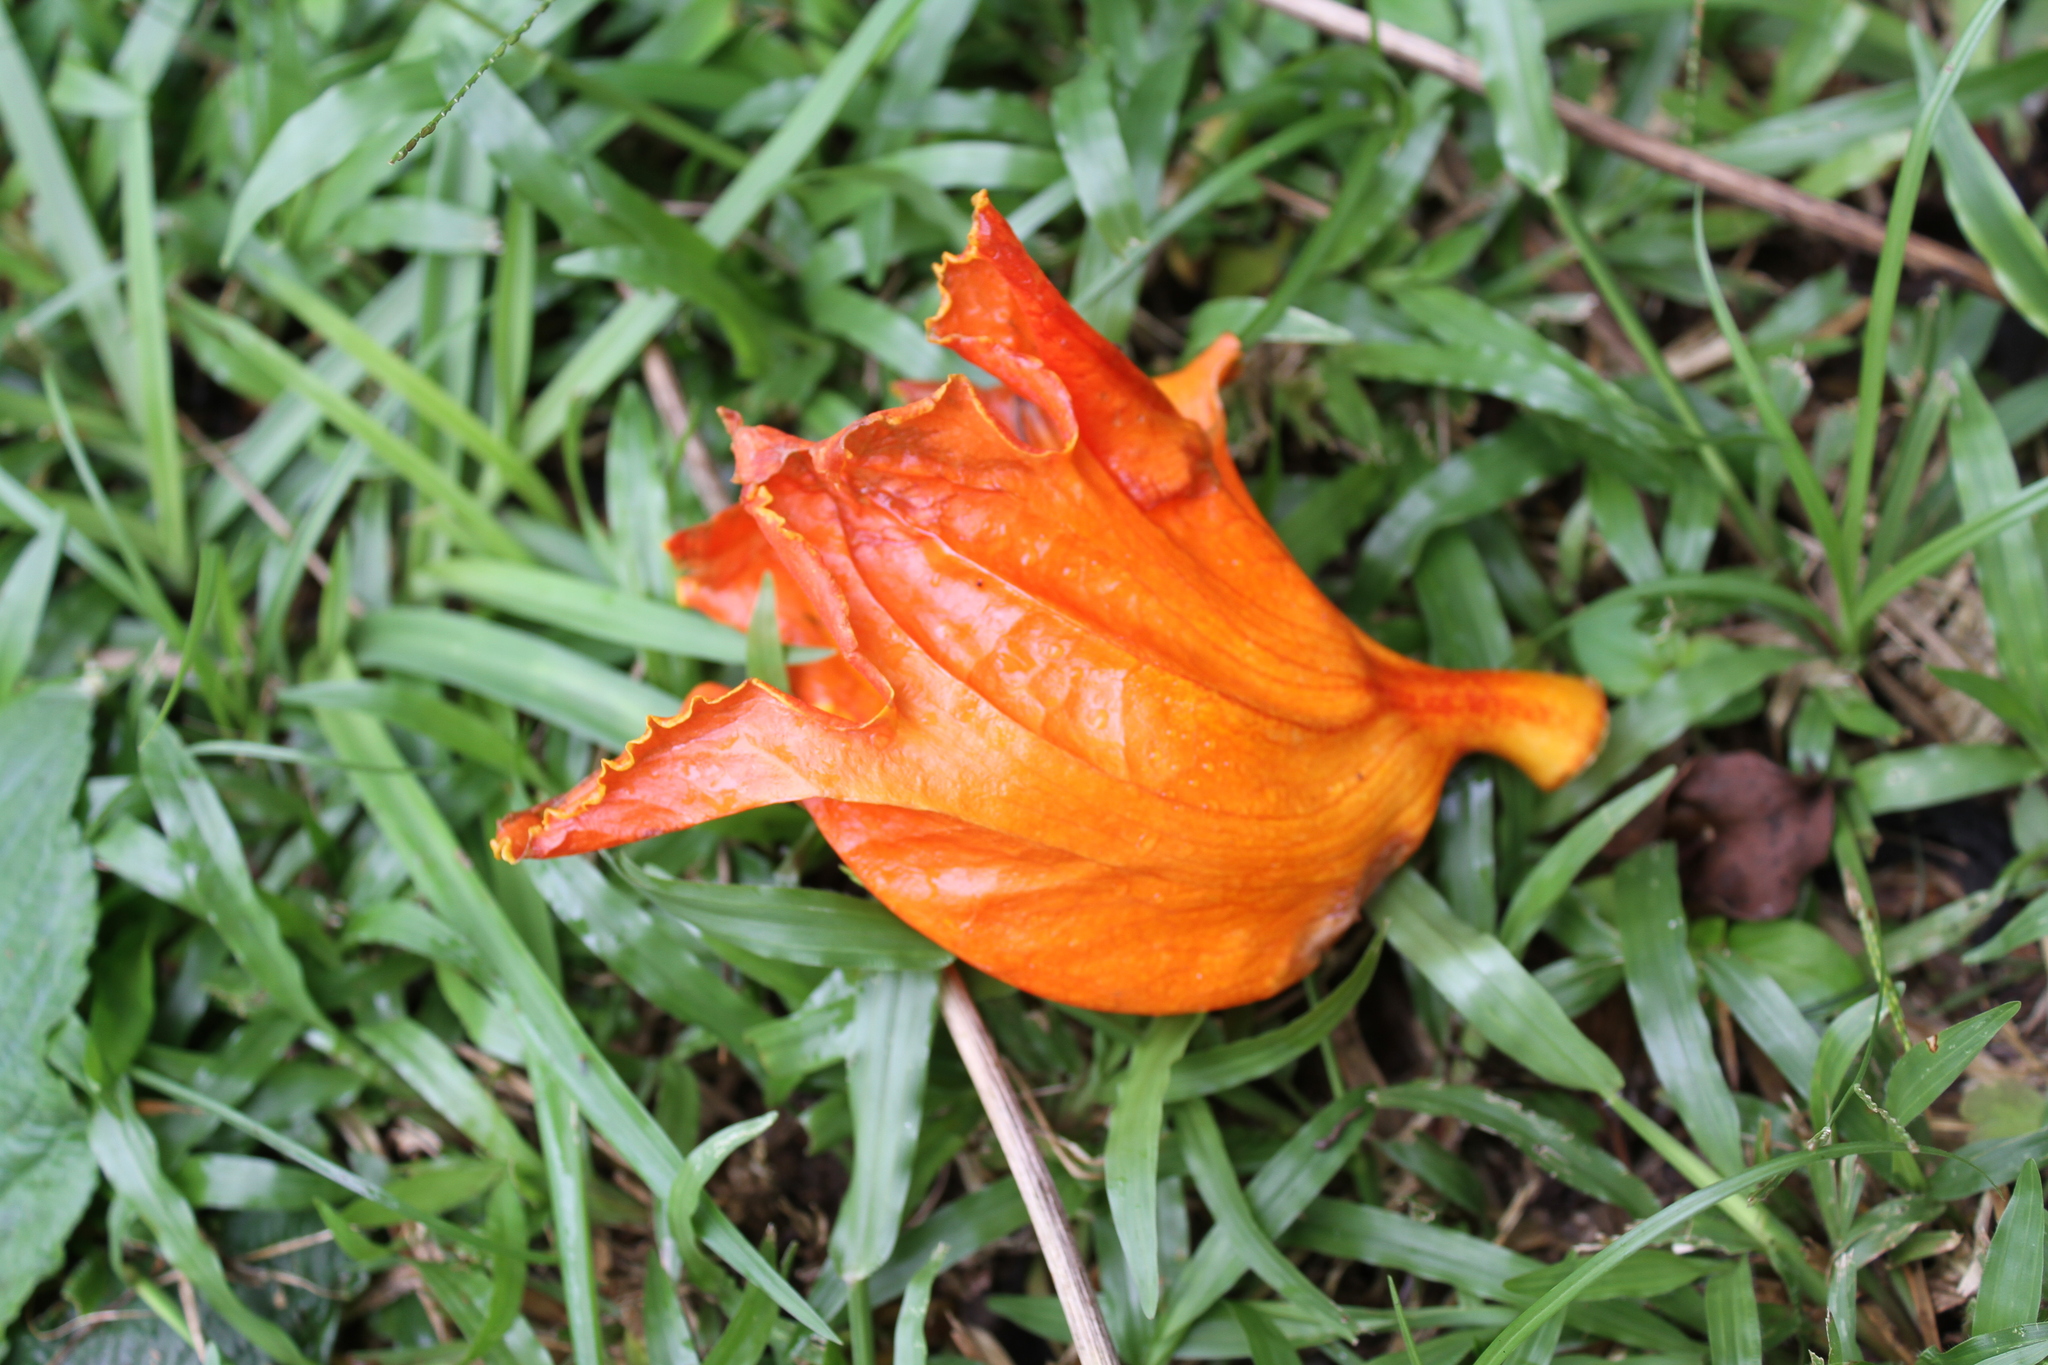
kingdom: Plantae
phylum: Tracheophyta
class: Magnoliopsida
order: Lamiales
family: Bignoniaceae
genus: Spathodea
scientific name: Spathodea campanulata
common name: African tuliptree
